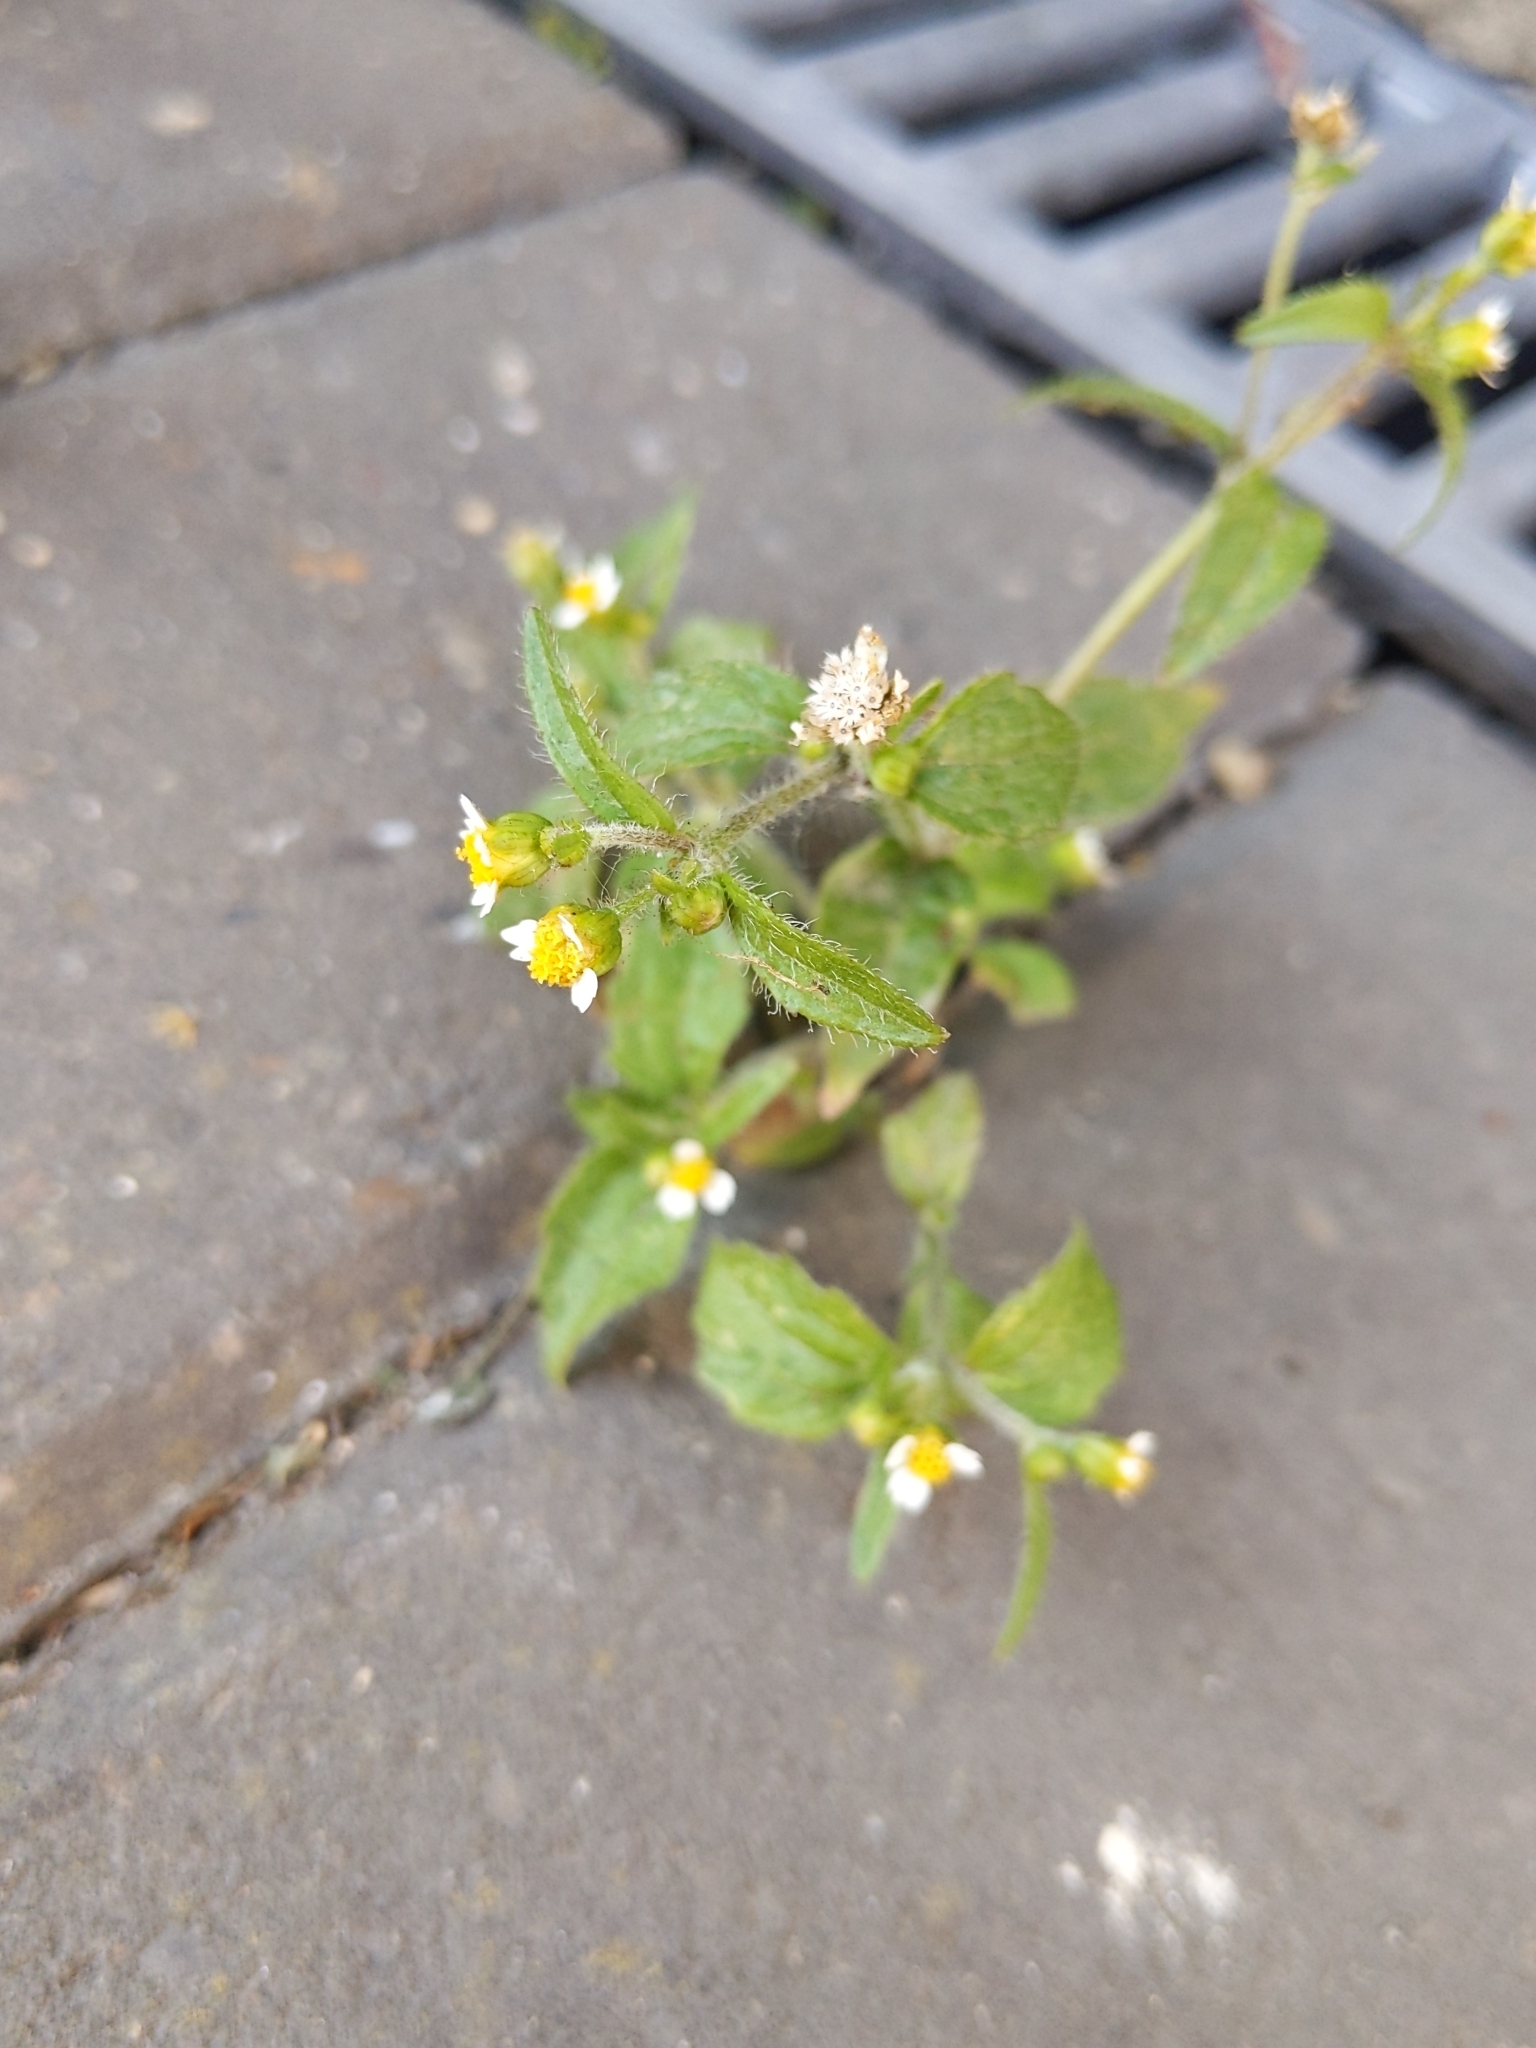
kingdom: Plantae
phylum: Tracheophyta
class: Magnoliopsida
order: Asterales
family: Asteraceae
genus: Galinsoga
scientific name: Galinsoga quadriradiata
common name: Shaggy soldier
